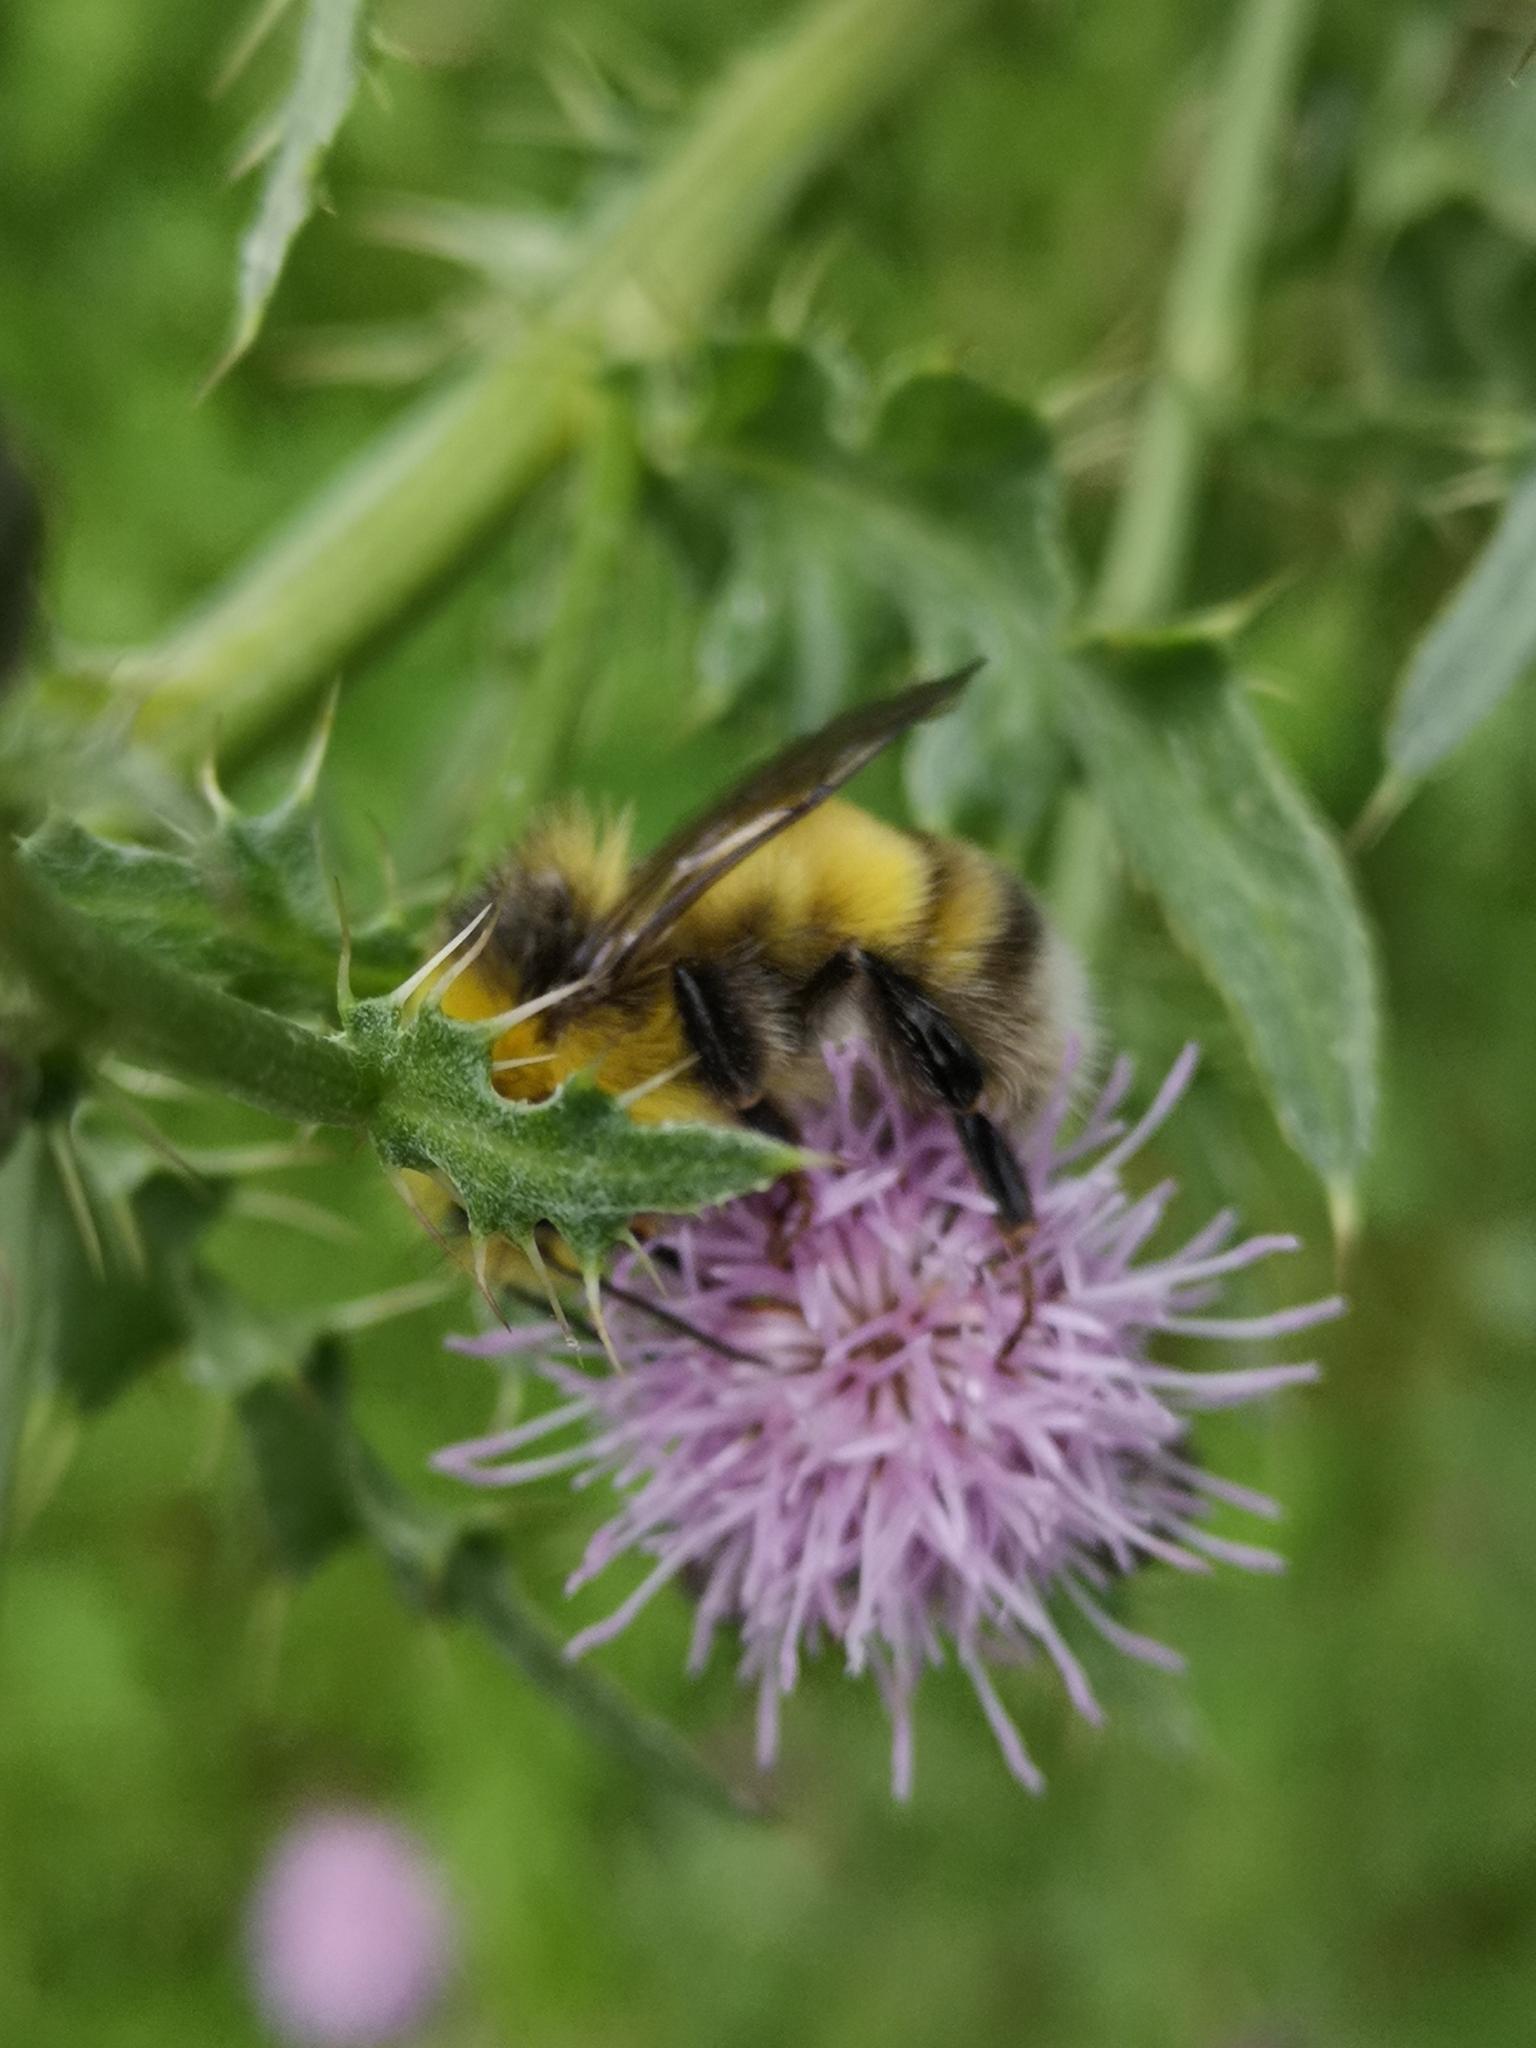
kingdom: Animalia
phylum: Arthropoda
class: Insecta
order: Hymenoptera
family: Apidae
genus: Bombus
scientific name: Bombus lucorum
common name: White-tailed bumblebee
